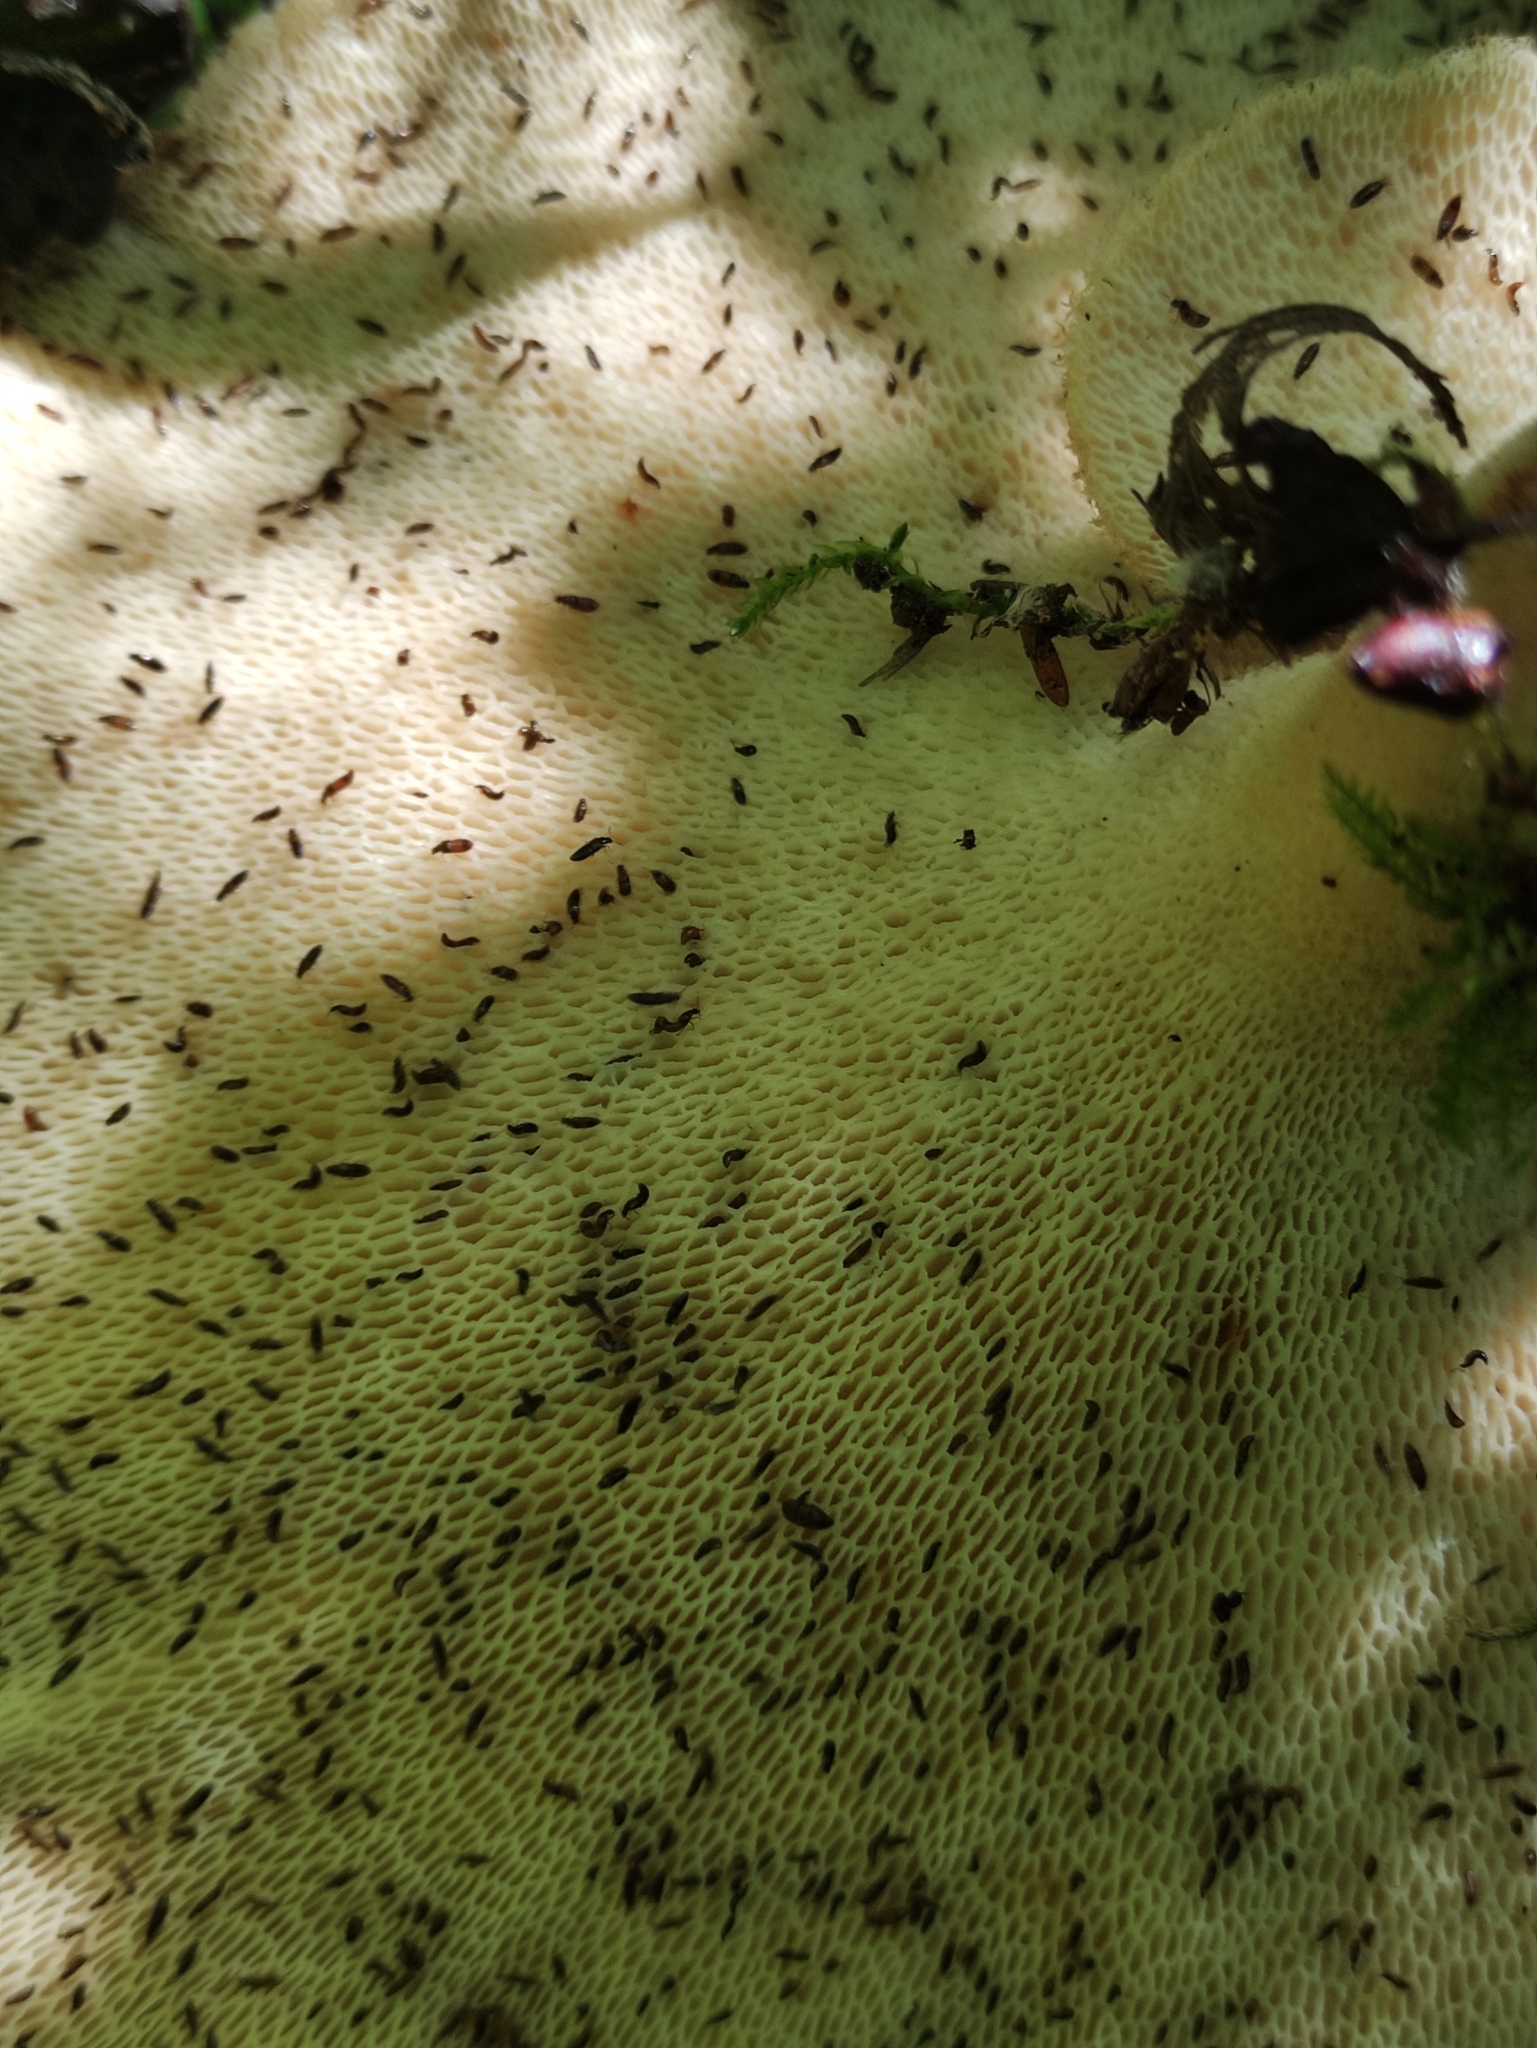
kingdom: Fungi
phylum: Basidiomycota
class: Agaricomycetes
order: Polyporales
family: Polyporaceae
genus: Cerioporus
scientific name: Cerioporus squamosus
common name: Dryad's saddle
